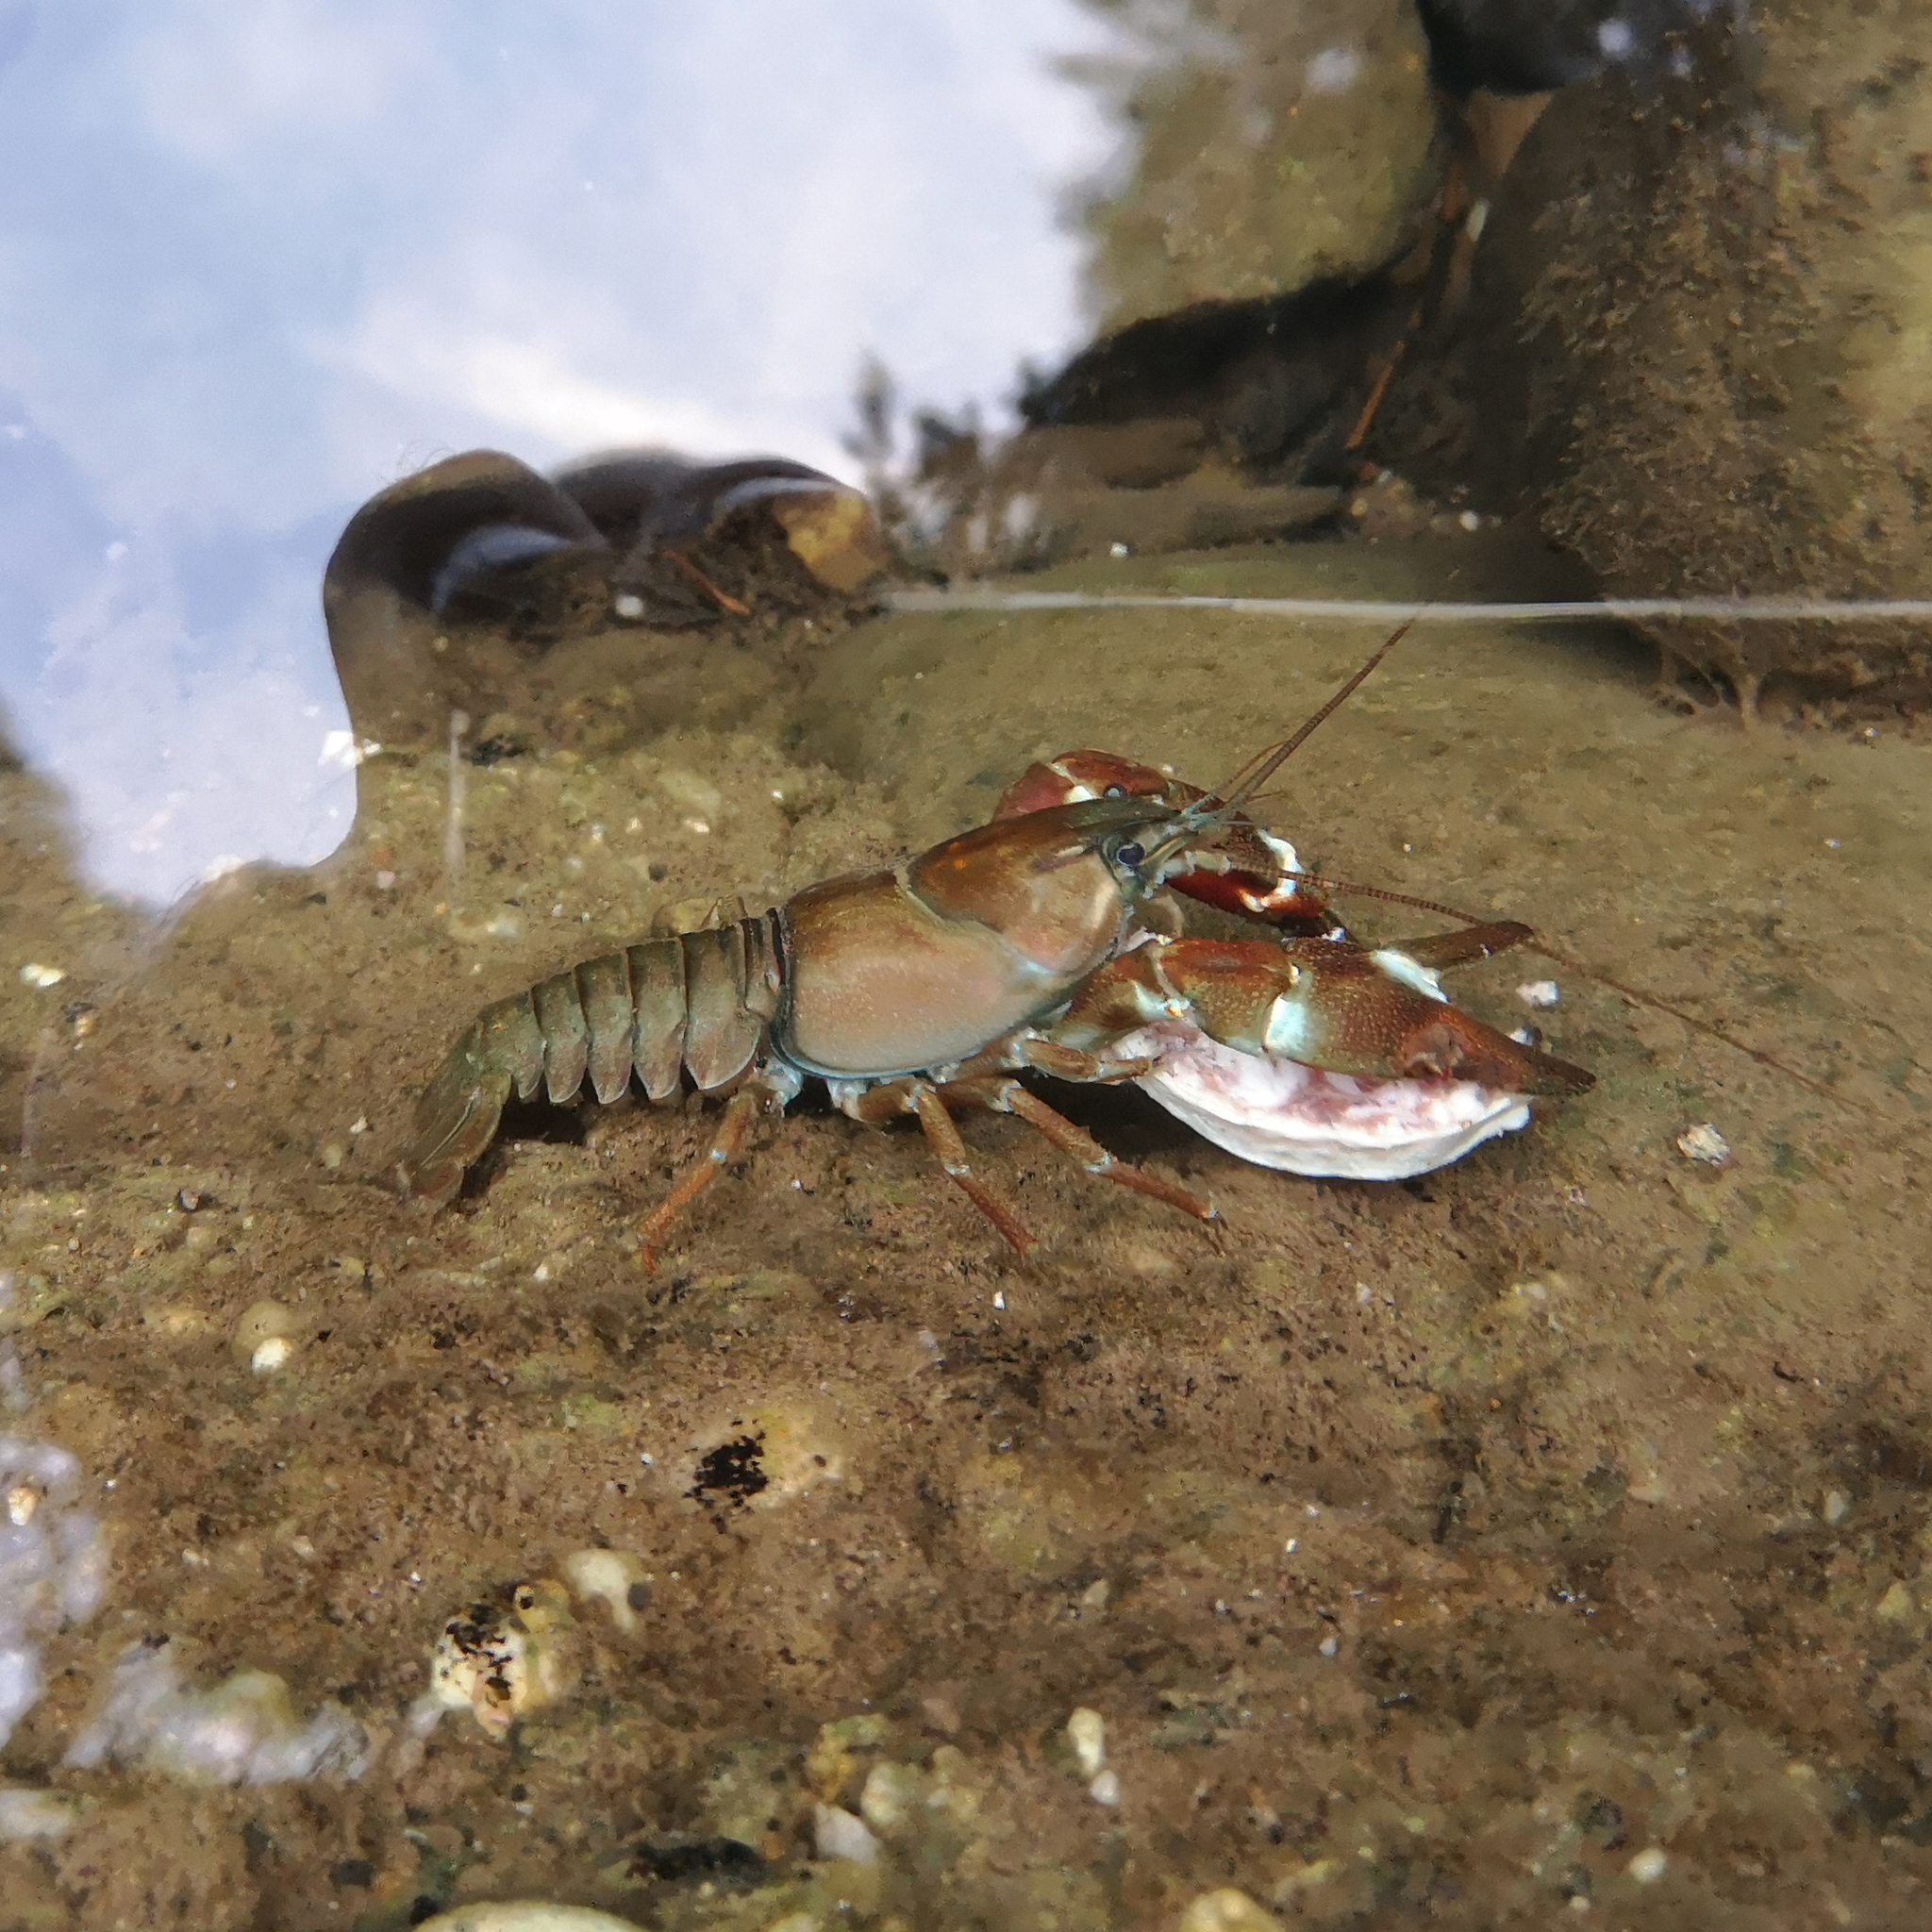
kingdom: Animalia
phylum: Arthropoda
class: Malacostraca
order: Decapoda
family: Astacidae
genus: Pacifastacus
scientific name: Pacifastacus leniusculus
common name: Signal crayfish
